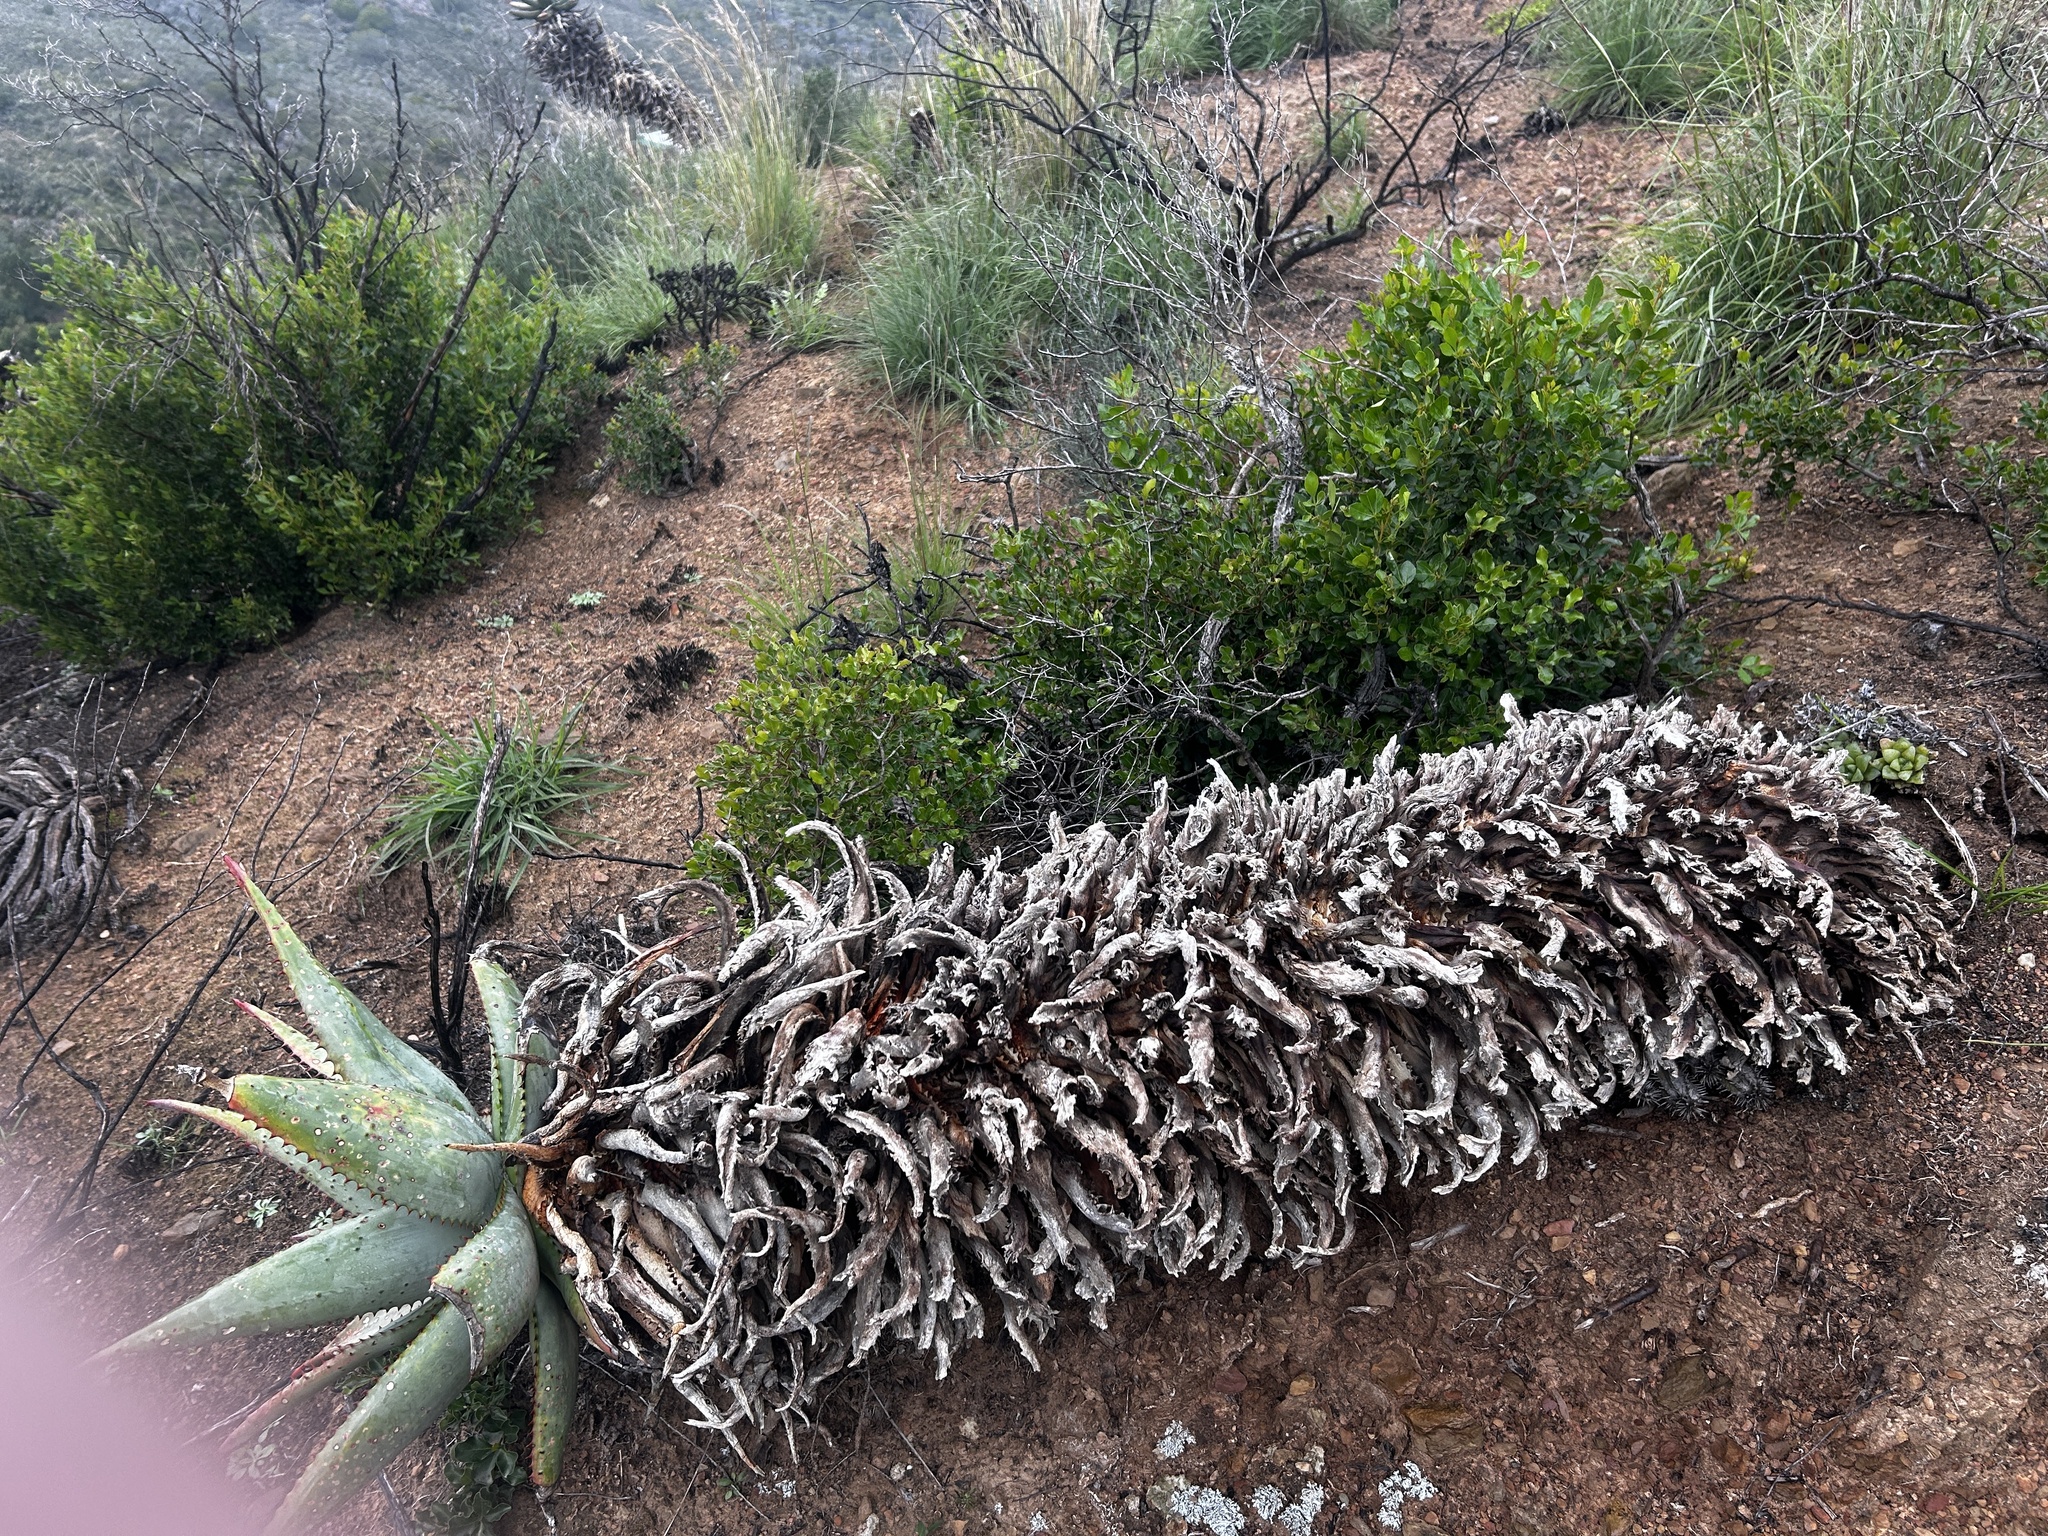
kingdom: Plantae
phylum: Tracheophyta
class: Liliopsida
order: Asparagales
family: Asphodelaceae
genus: Aloe
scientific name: Aloe ferox
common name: Bitter aloe
